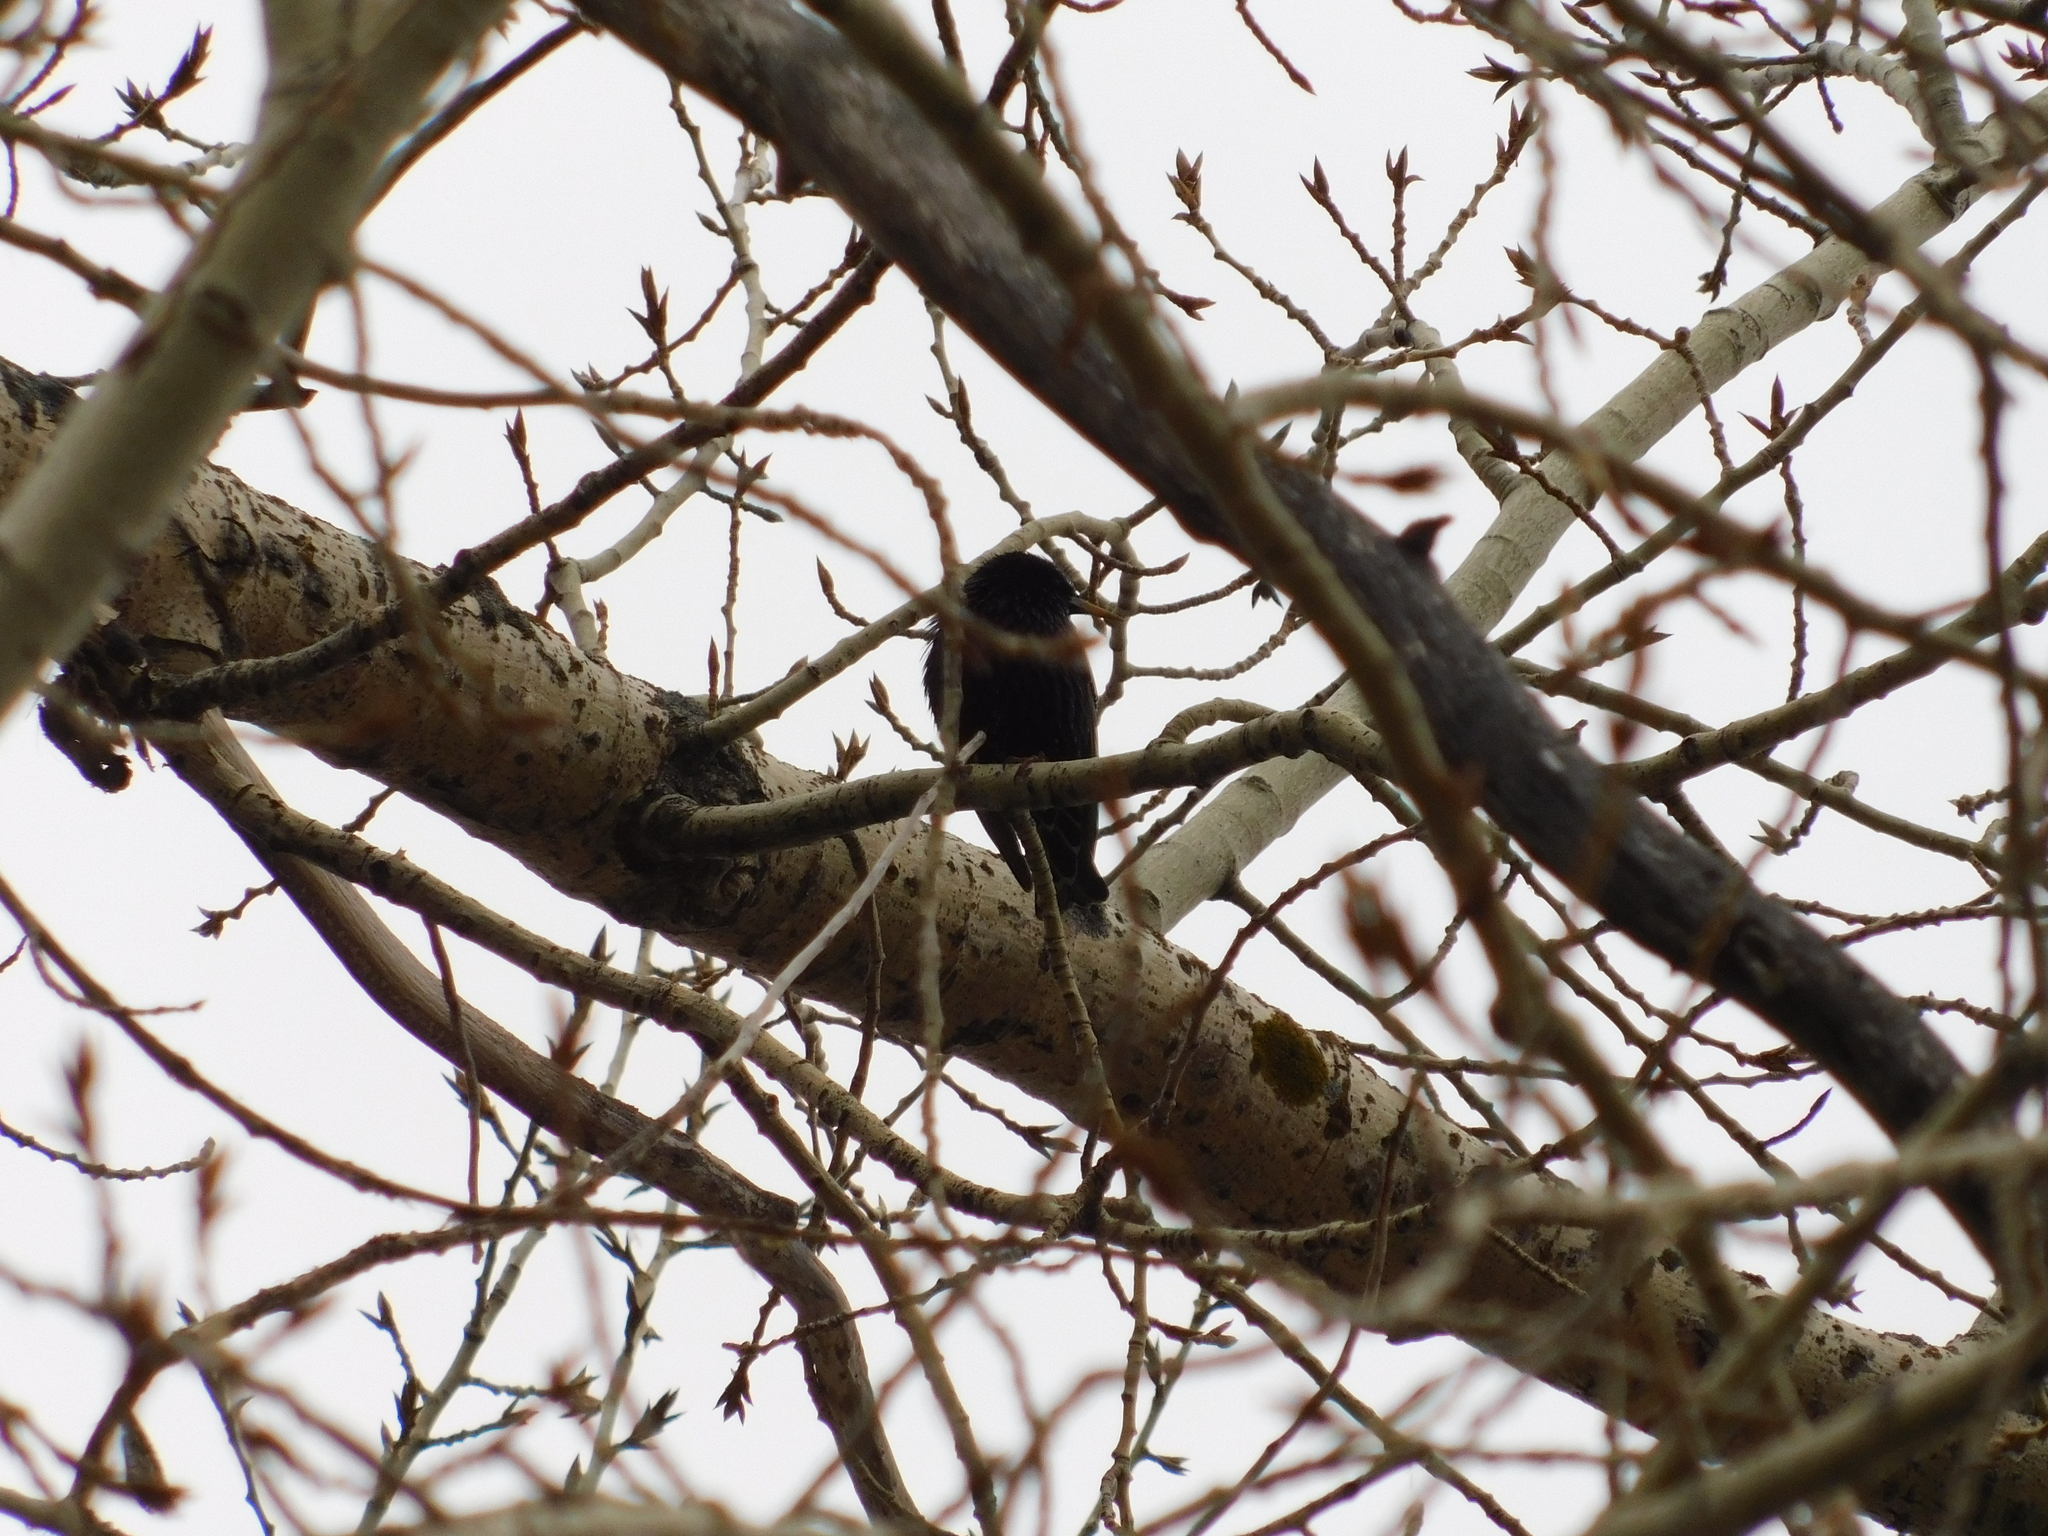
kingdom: Animalia
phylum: Chordata
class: Aves
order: Passeriformes
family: Sturnidae
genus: Sturnus
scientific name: Sturnus vulgaris
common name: Common starling
